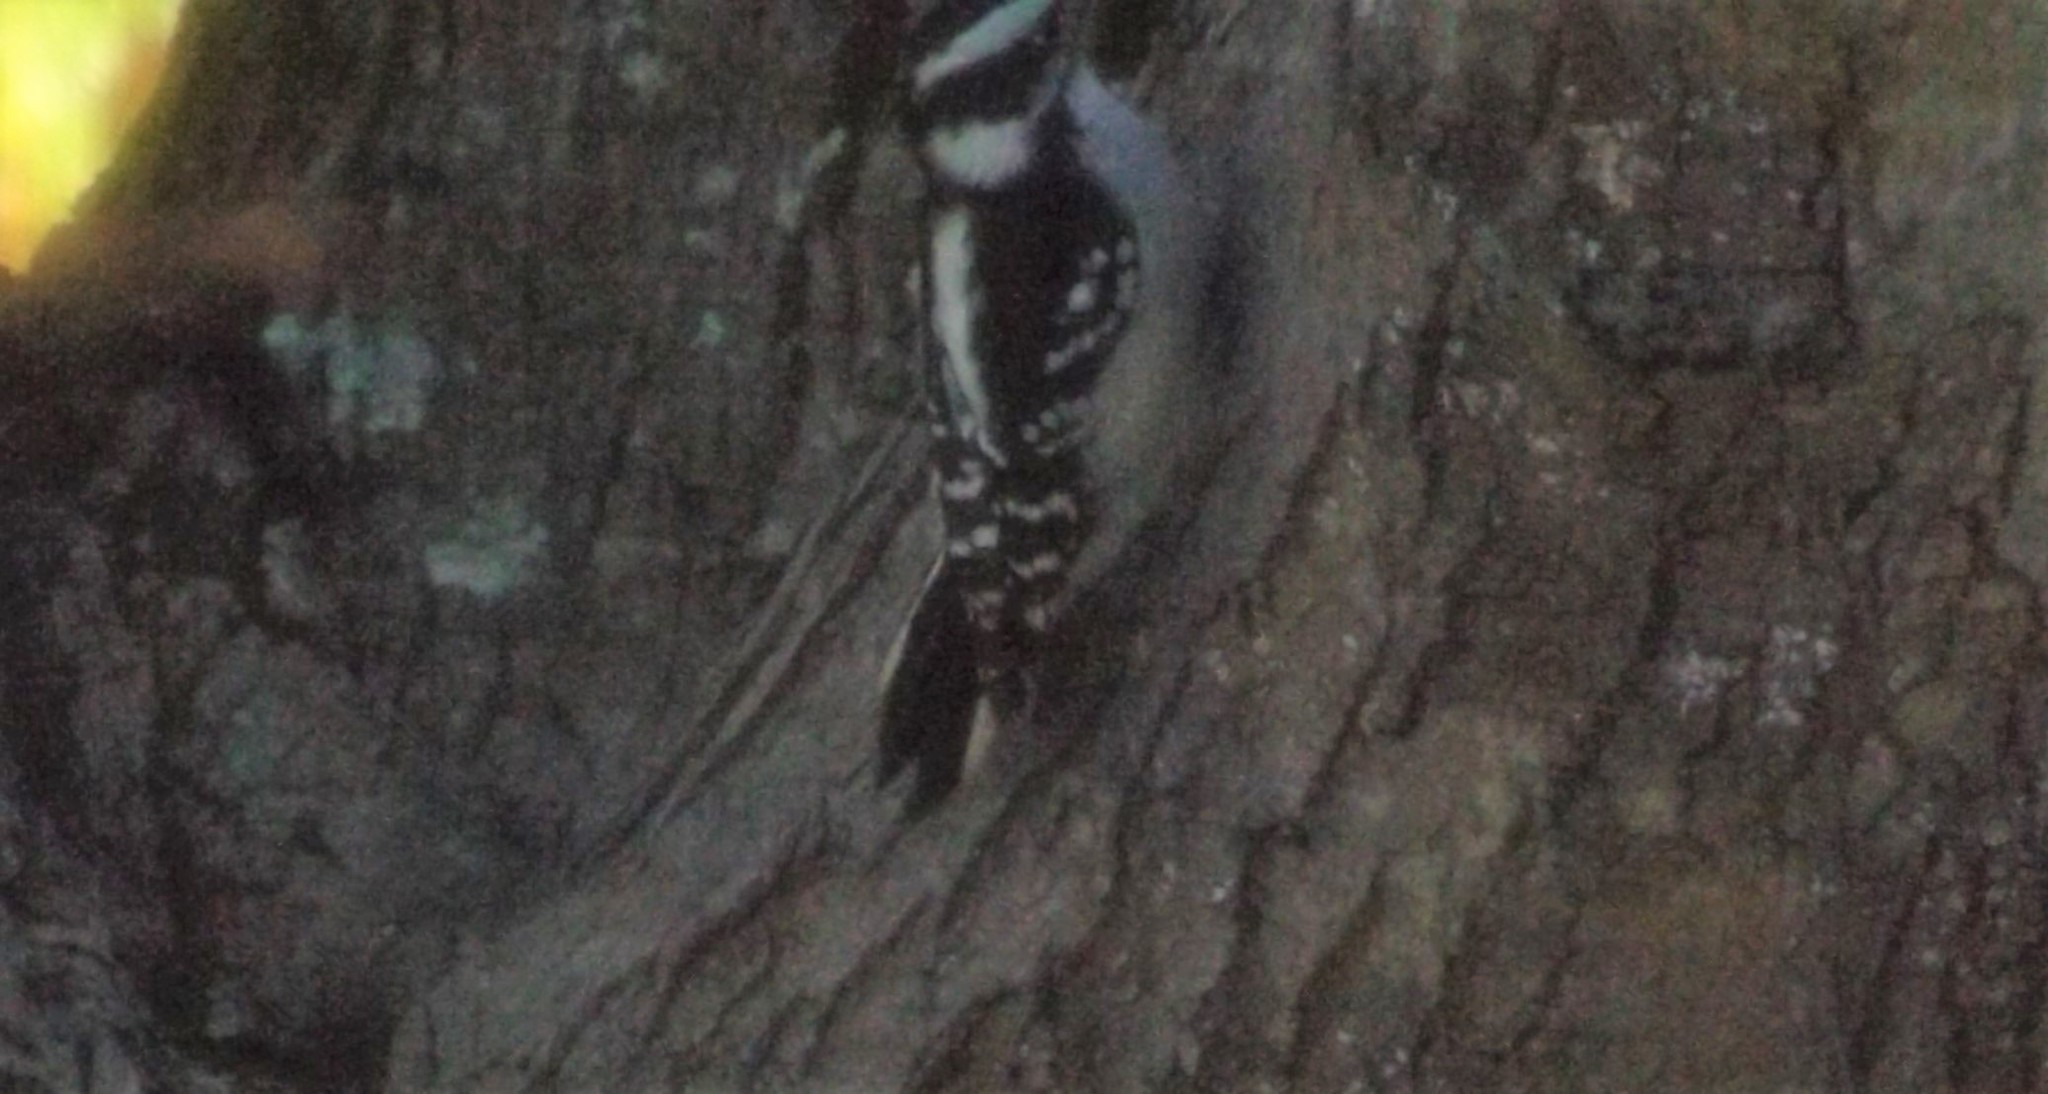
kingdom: Animalia
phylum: Chordata
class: Aves
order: Piciformes
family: Picidae
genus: Dryobates
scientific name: Dryobates pubescens
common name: Downy woodpecker
